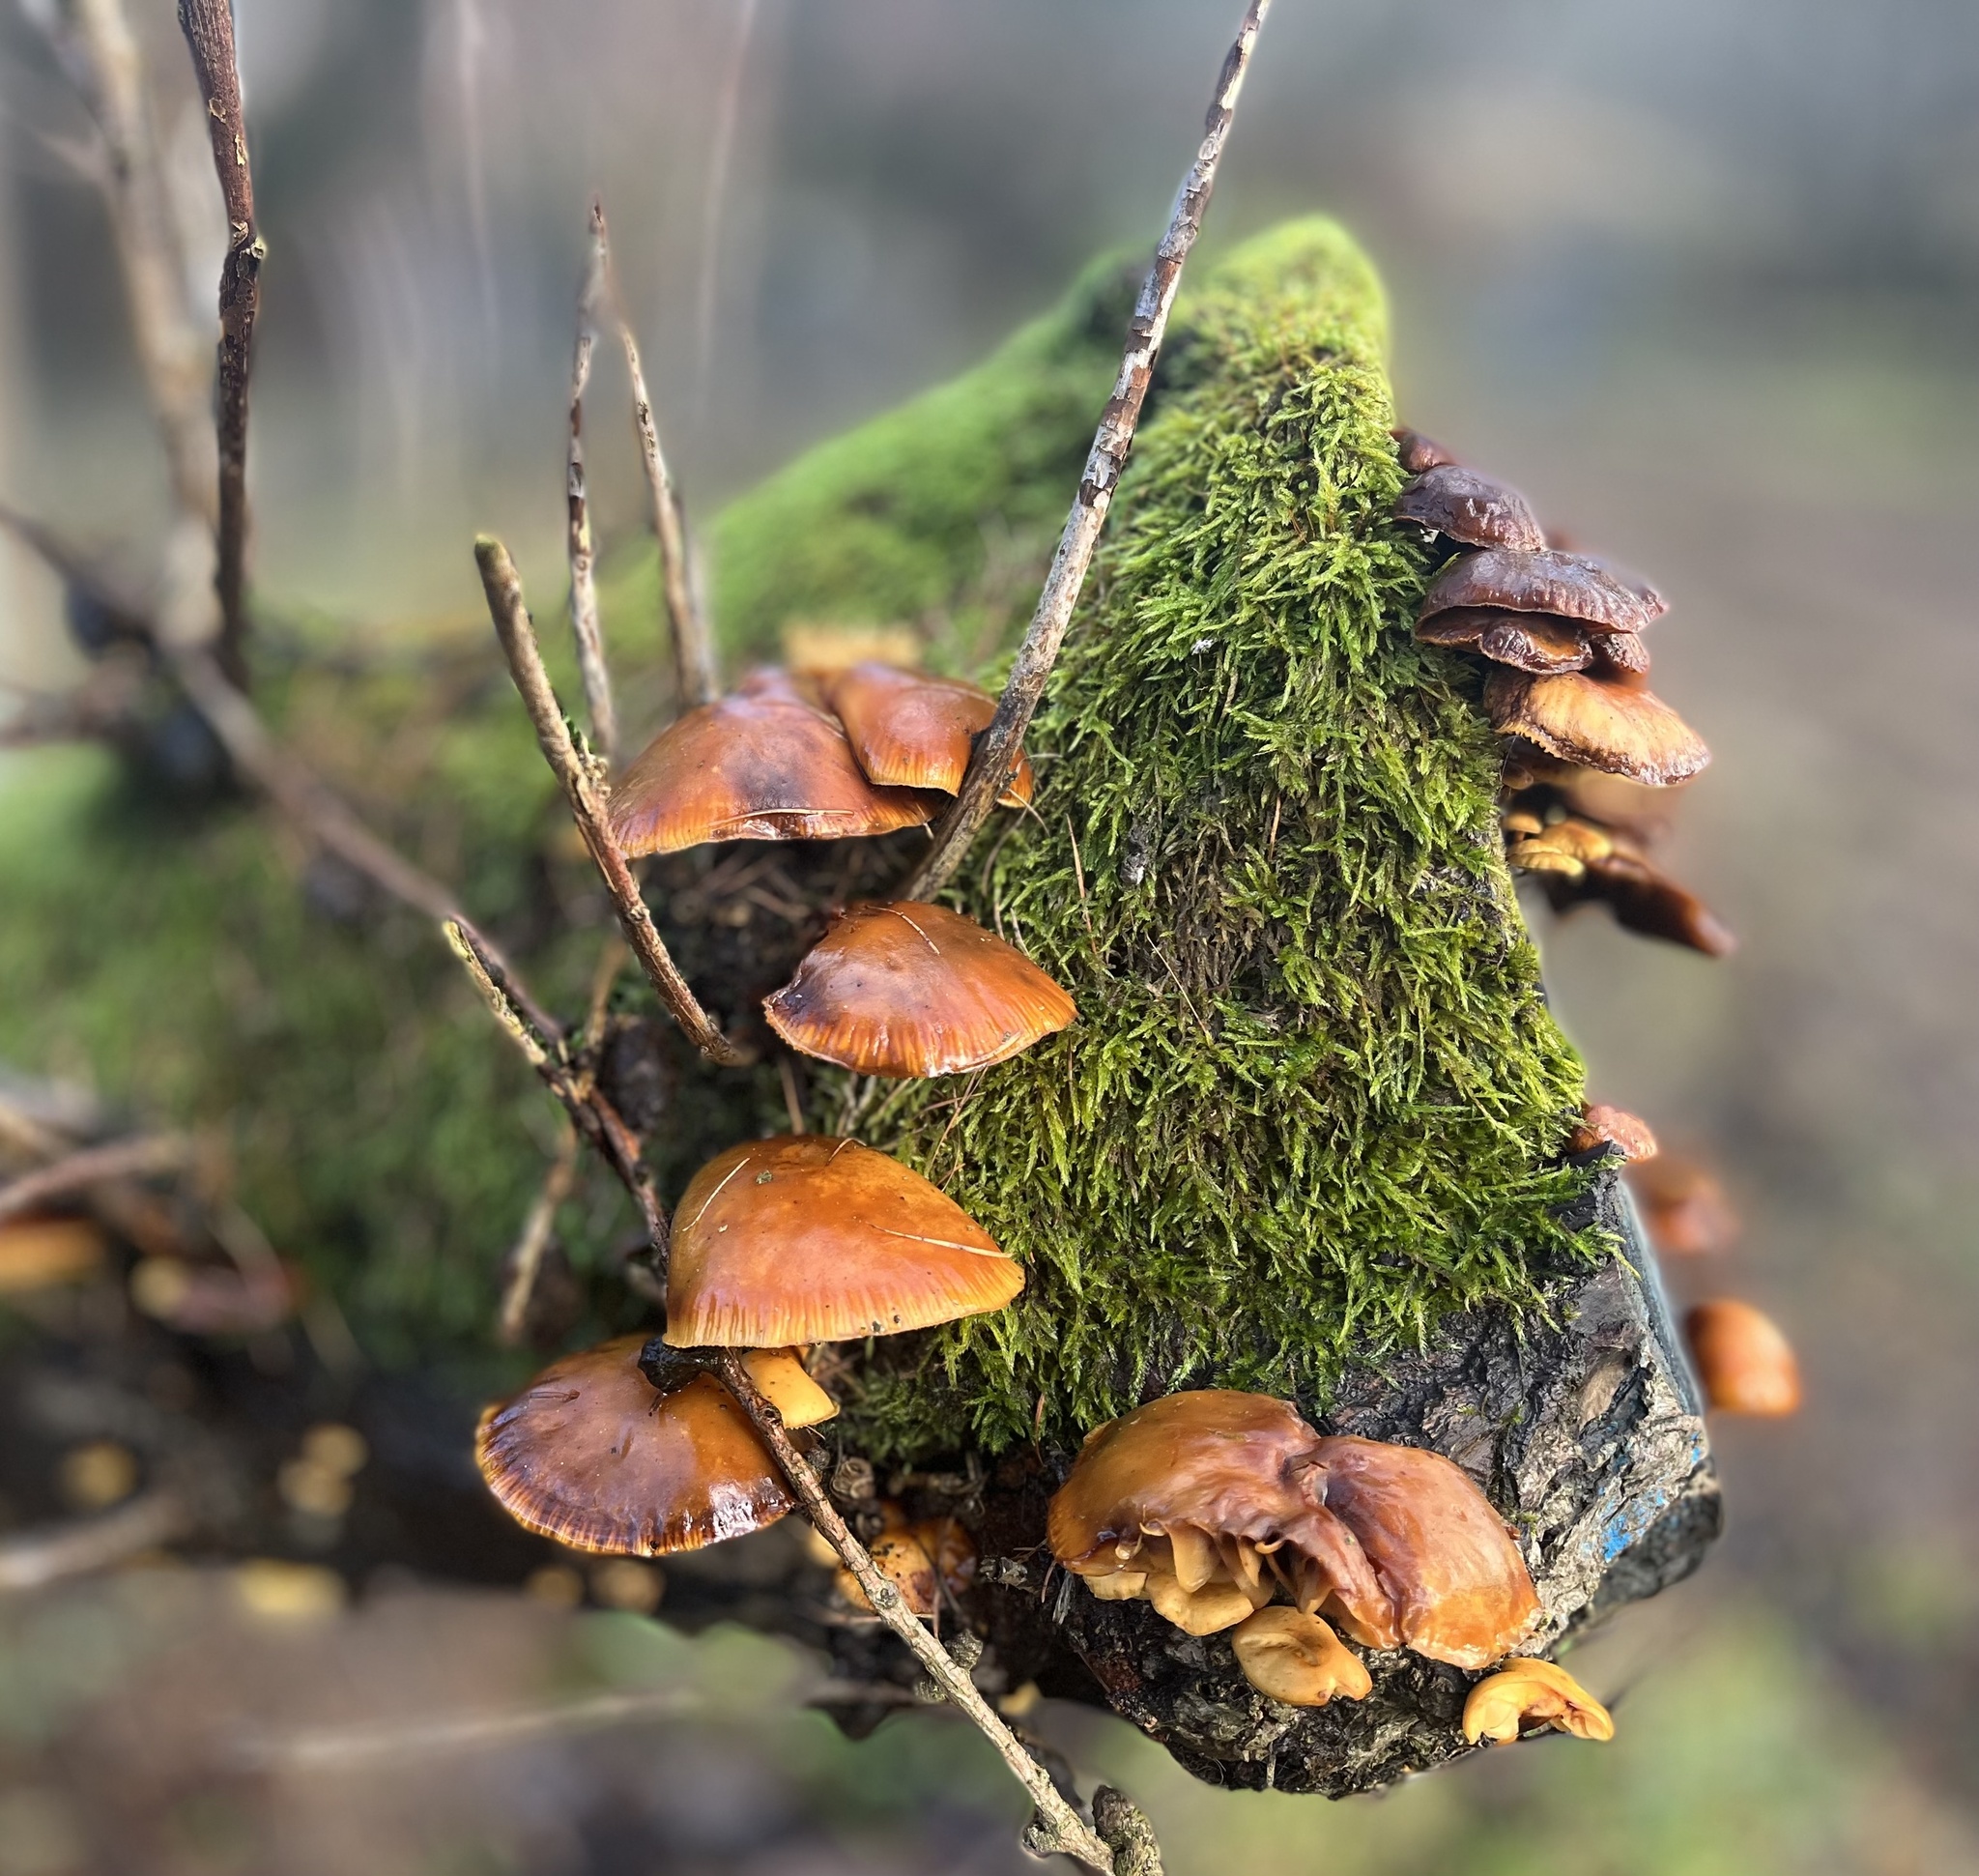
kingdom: Fungi
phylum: Basidiomycota
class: Agaricomycetes
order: Agaricales
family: Physalacriaceae
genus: Flammulina
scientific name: Flammulina
